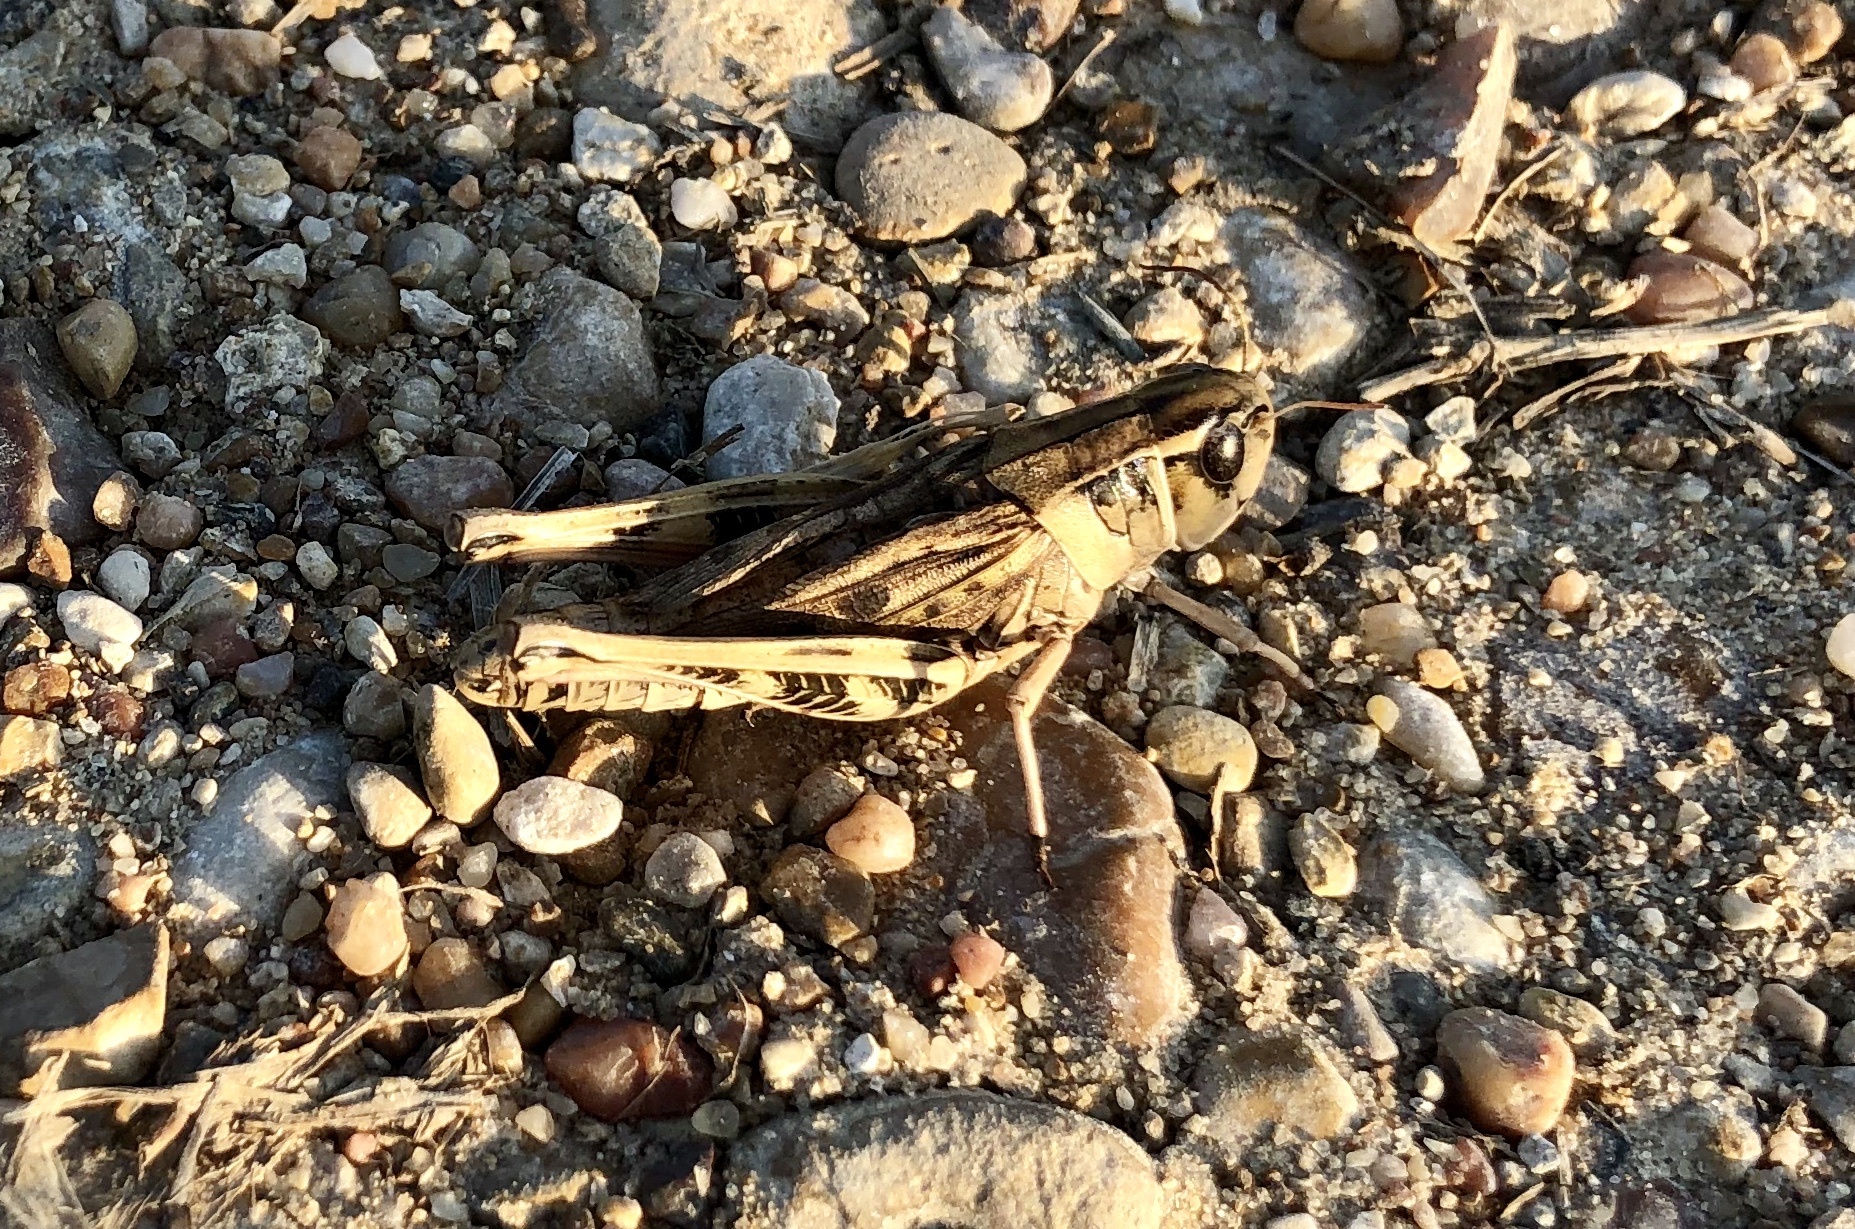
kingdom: Animalia
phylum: Arthropoda
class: Insecta
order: Orthoptera
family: Acrididae
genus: Boopedon
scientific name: Boopedon gracile
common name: Graceful range grasshopper
